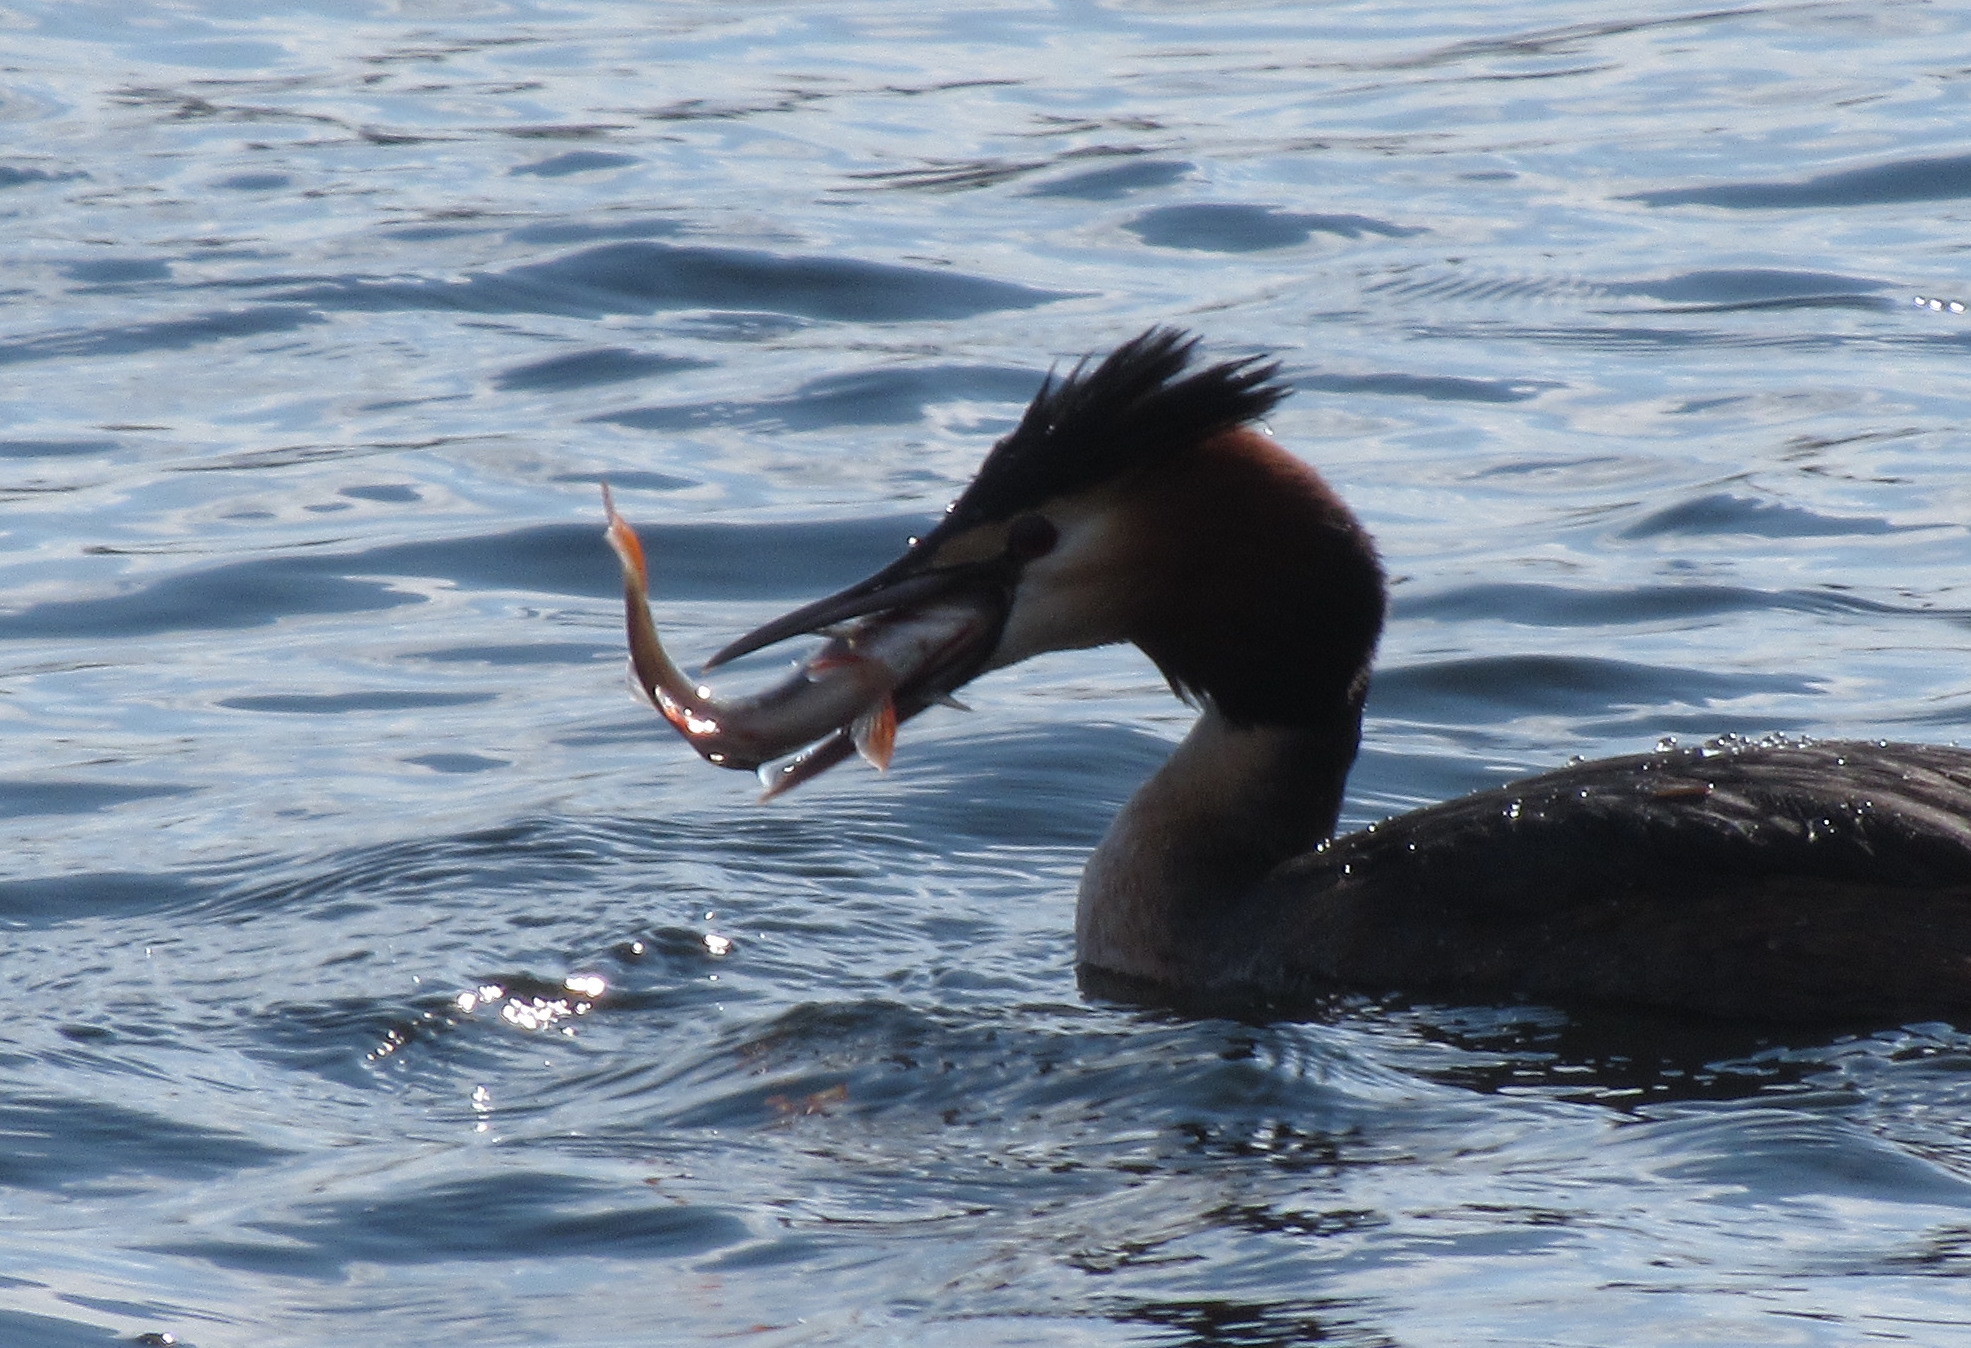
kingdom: Animalia
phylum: Chordata
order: Perciformes
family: Percidae
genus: Perca
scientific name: Perca fluviatilis
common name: Perch
